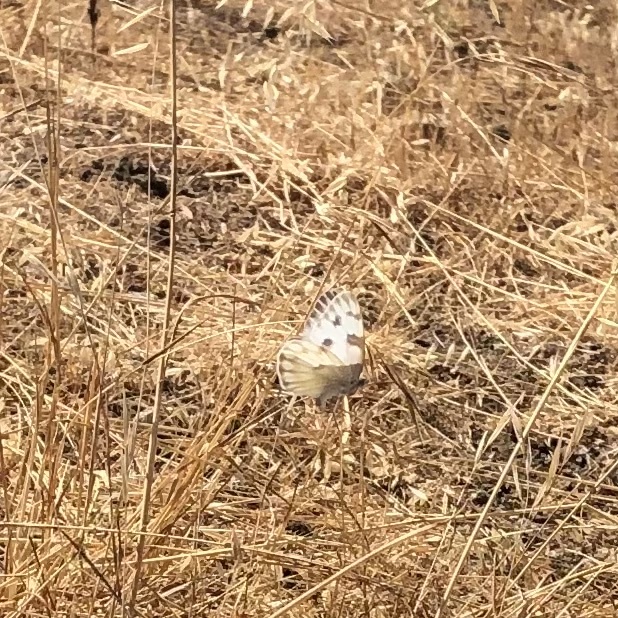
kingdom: Animalia
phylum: Arthropoda
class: Insecta
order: Lepidoptera
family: Pieridae
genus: Pontia
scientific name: Pontia protodice
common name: Checkered white
